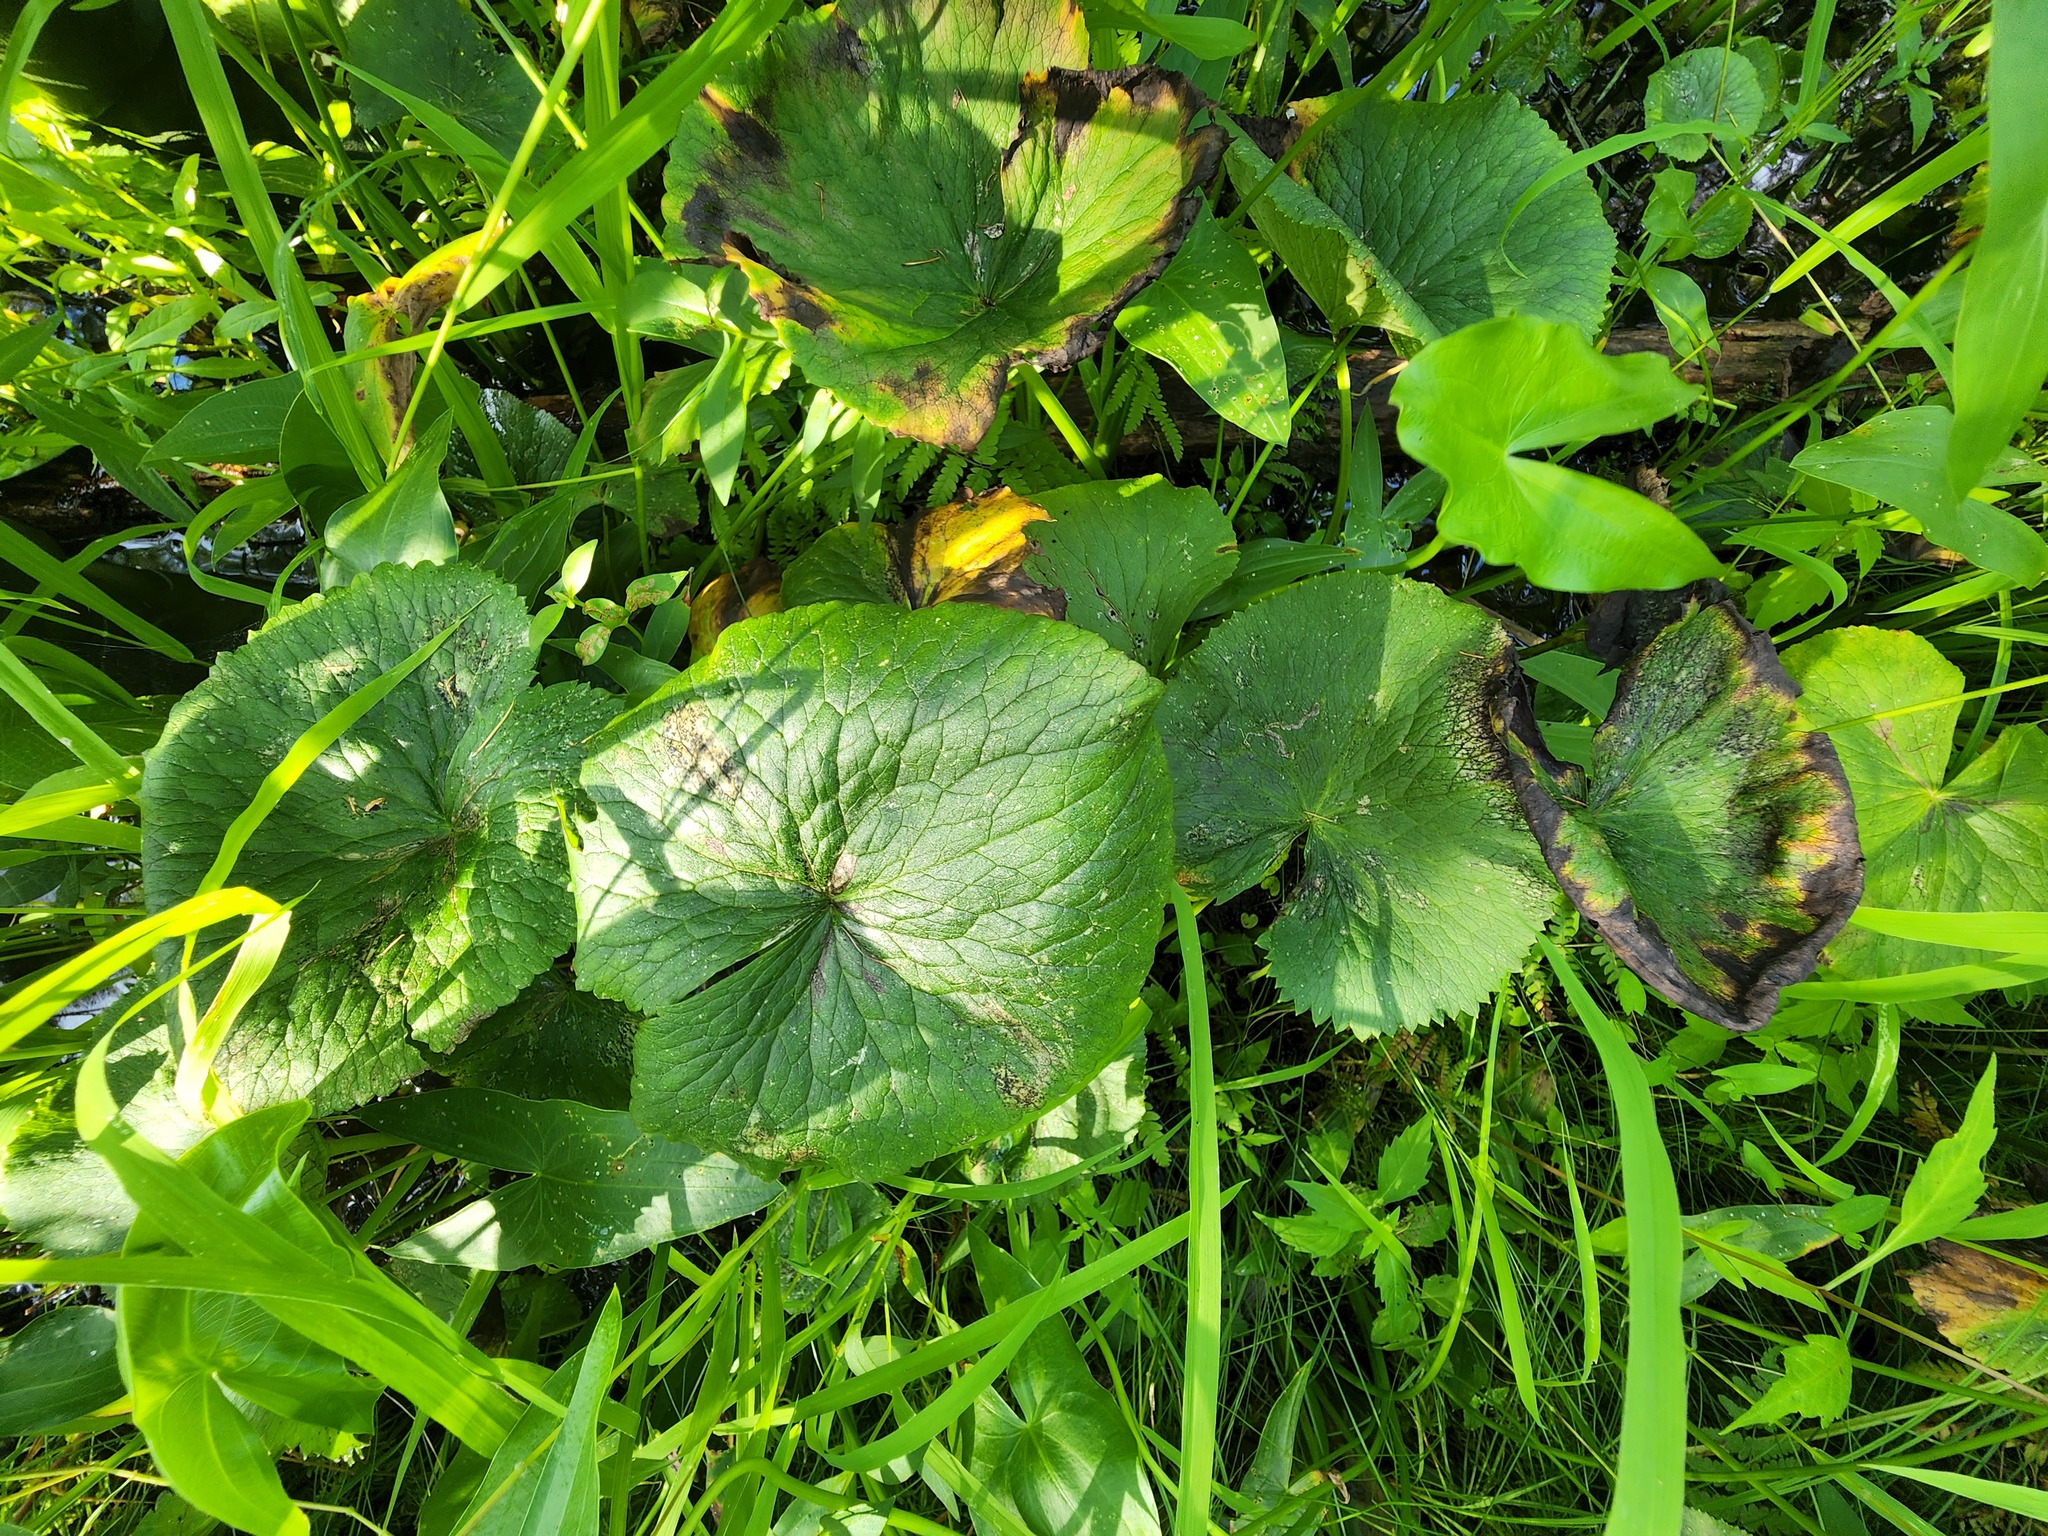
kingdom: Plantae
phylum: Tracheophyta
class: Magnoliopsida
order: Ranunculales
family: Ranunculaceae
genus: Caltha
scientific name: Caltha palustris
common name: Marsh marigold
